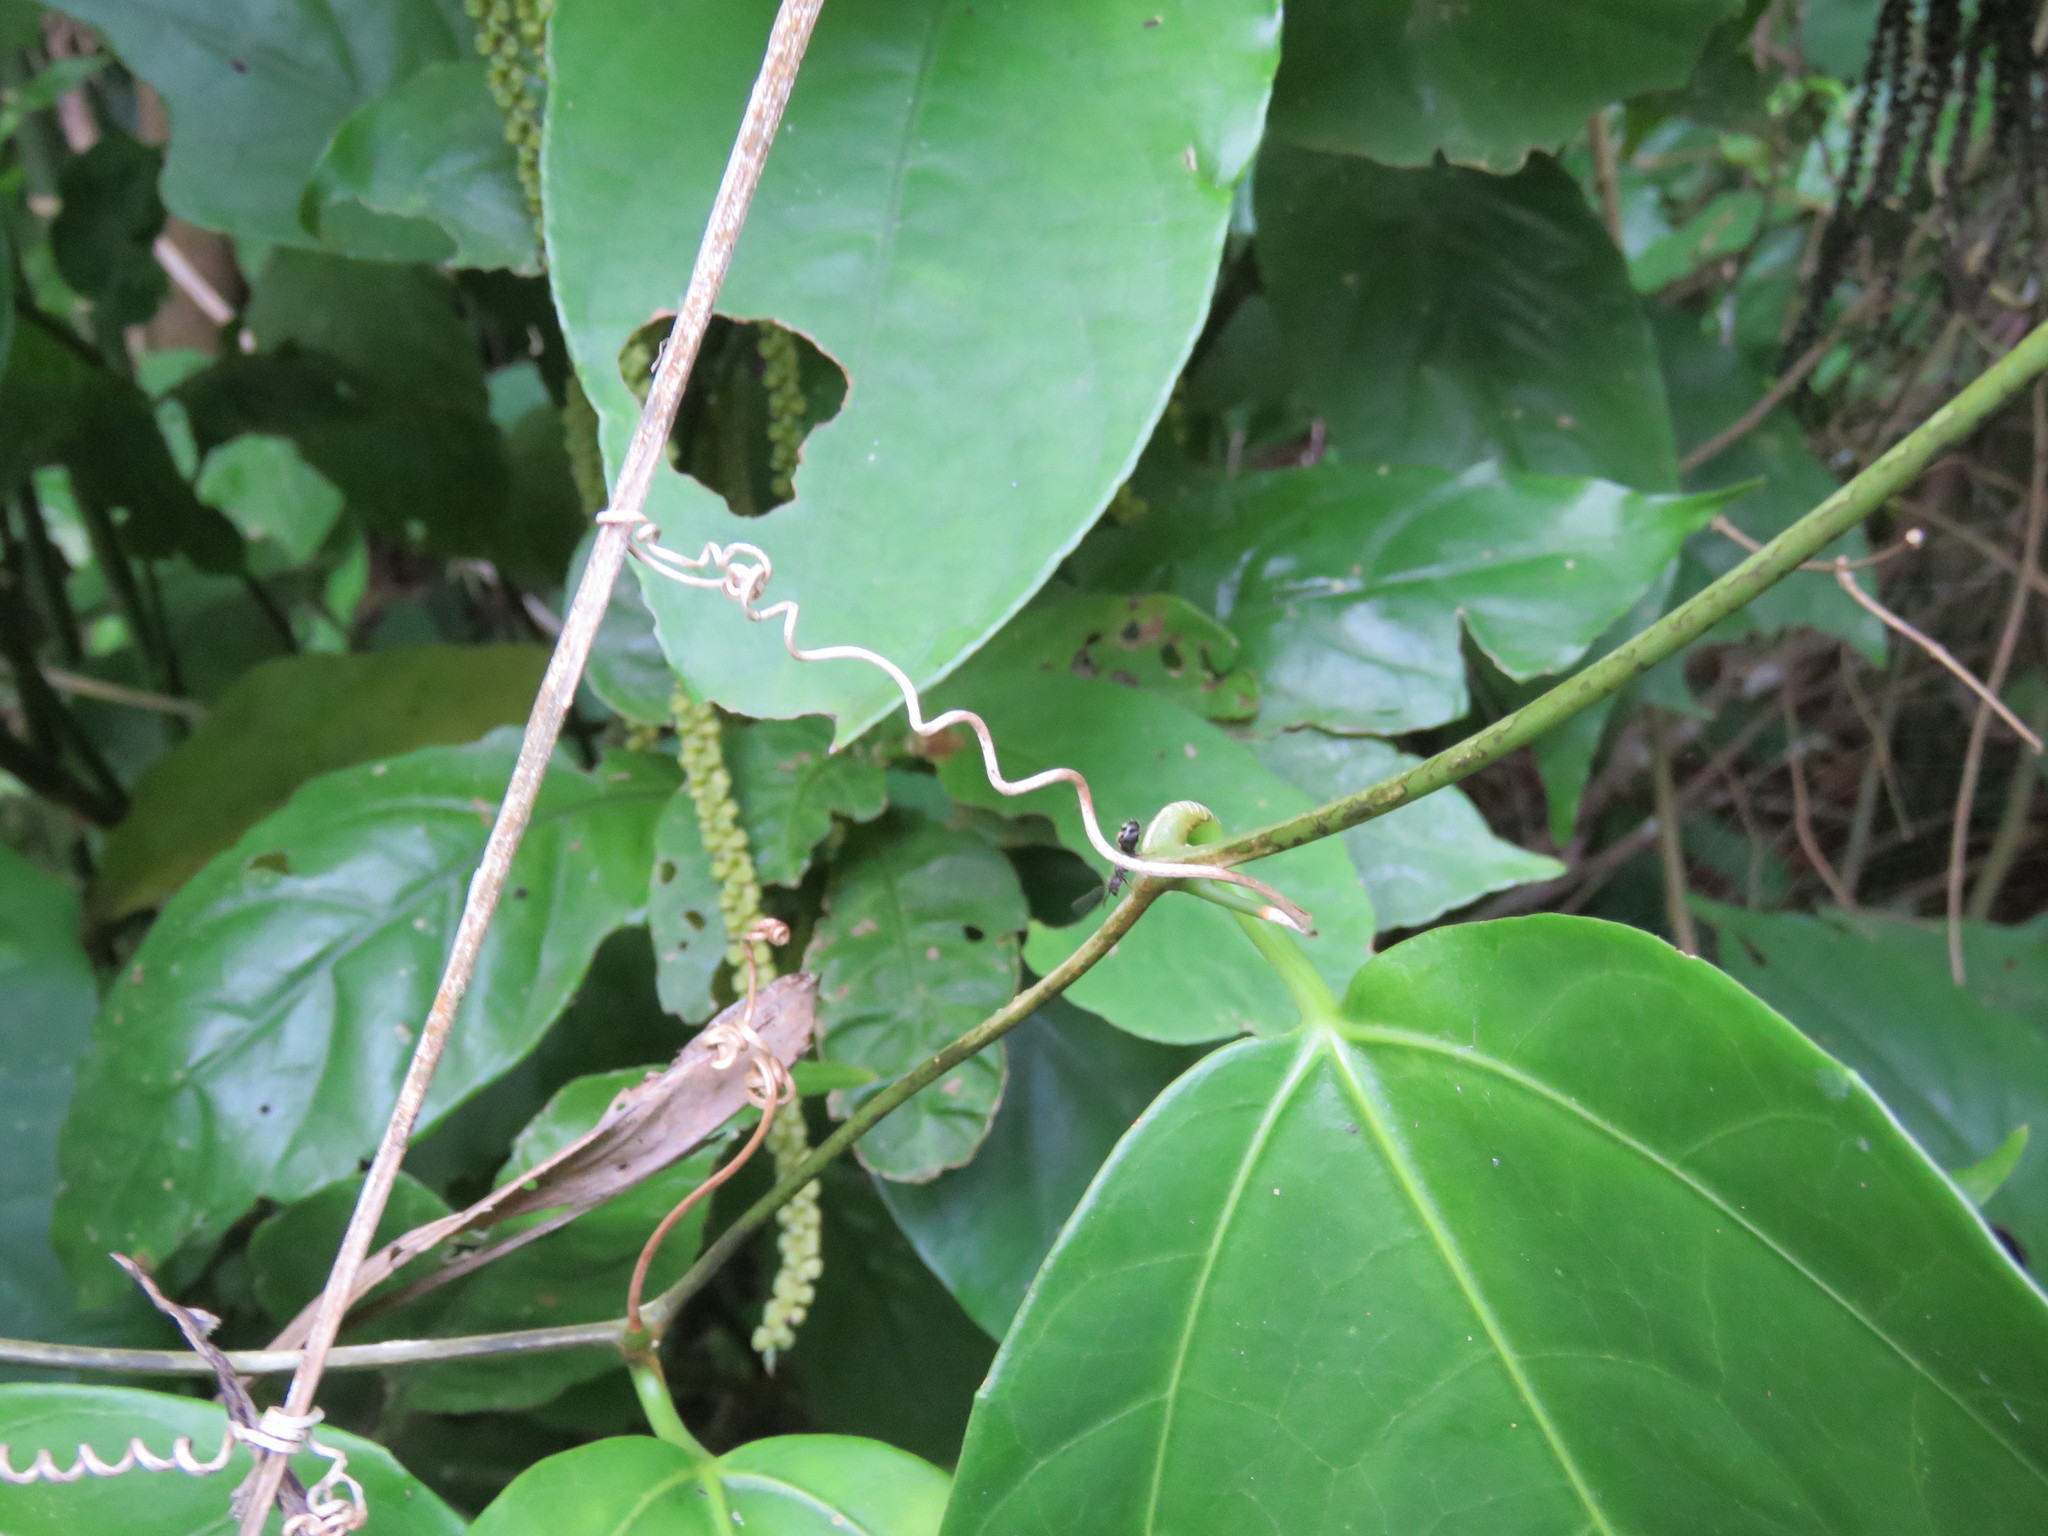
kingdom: Plantae
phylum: Tracheophyta
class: Magnoliopsida
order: Cucurbitales
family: Cucurbitaceae
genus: Psiguria
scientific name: Psiguria triphylla
